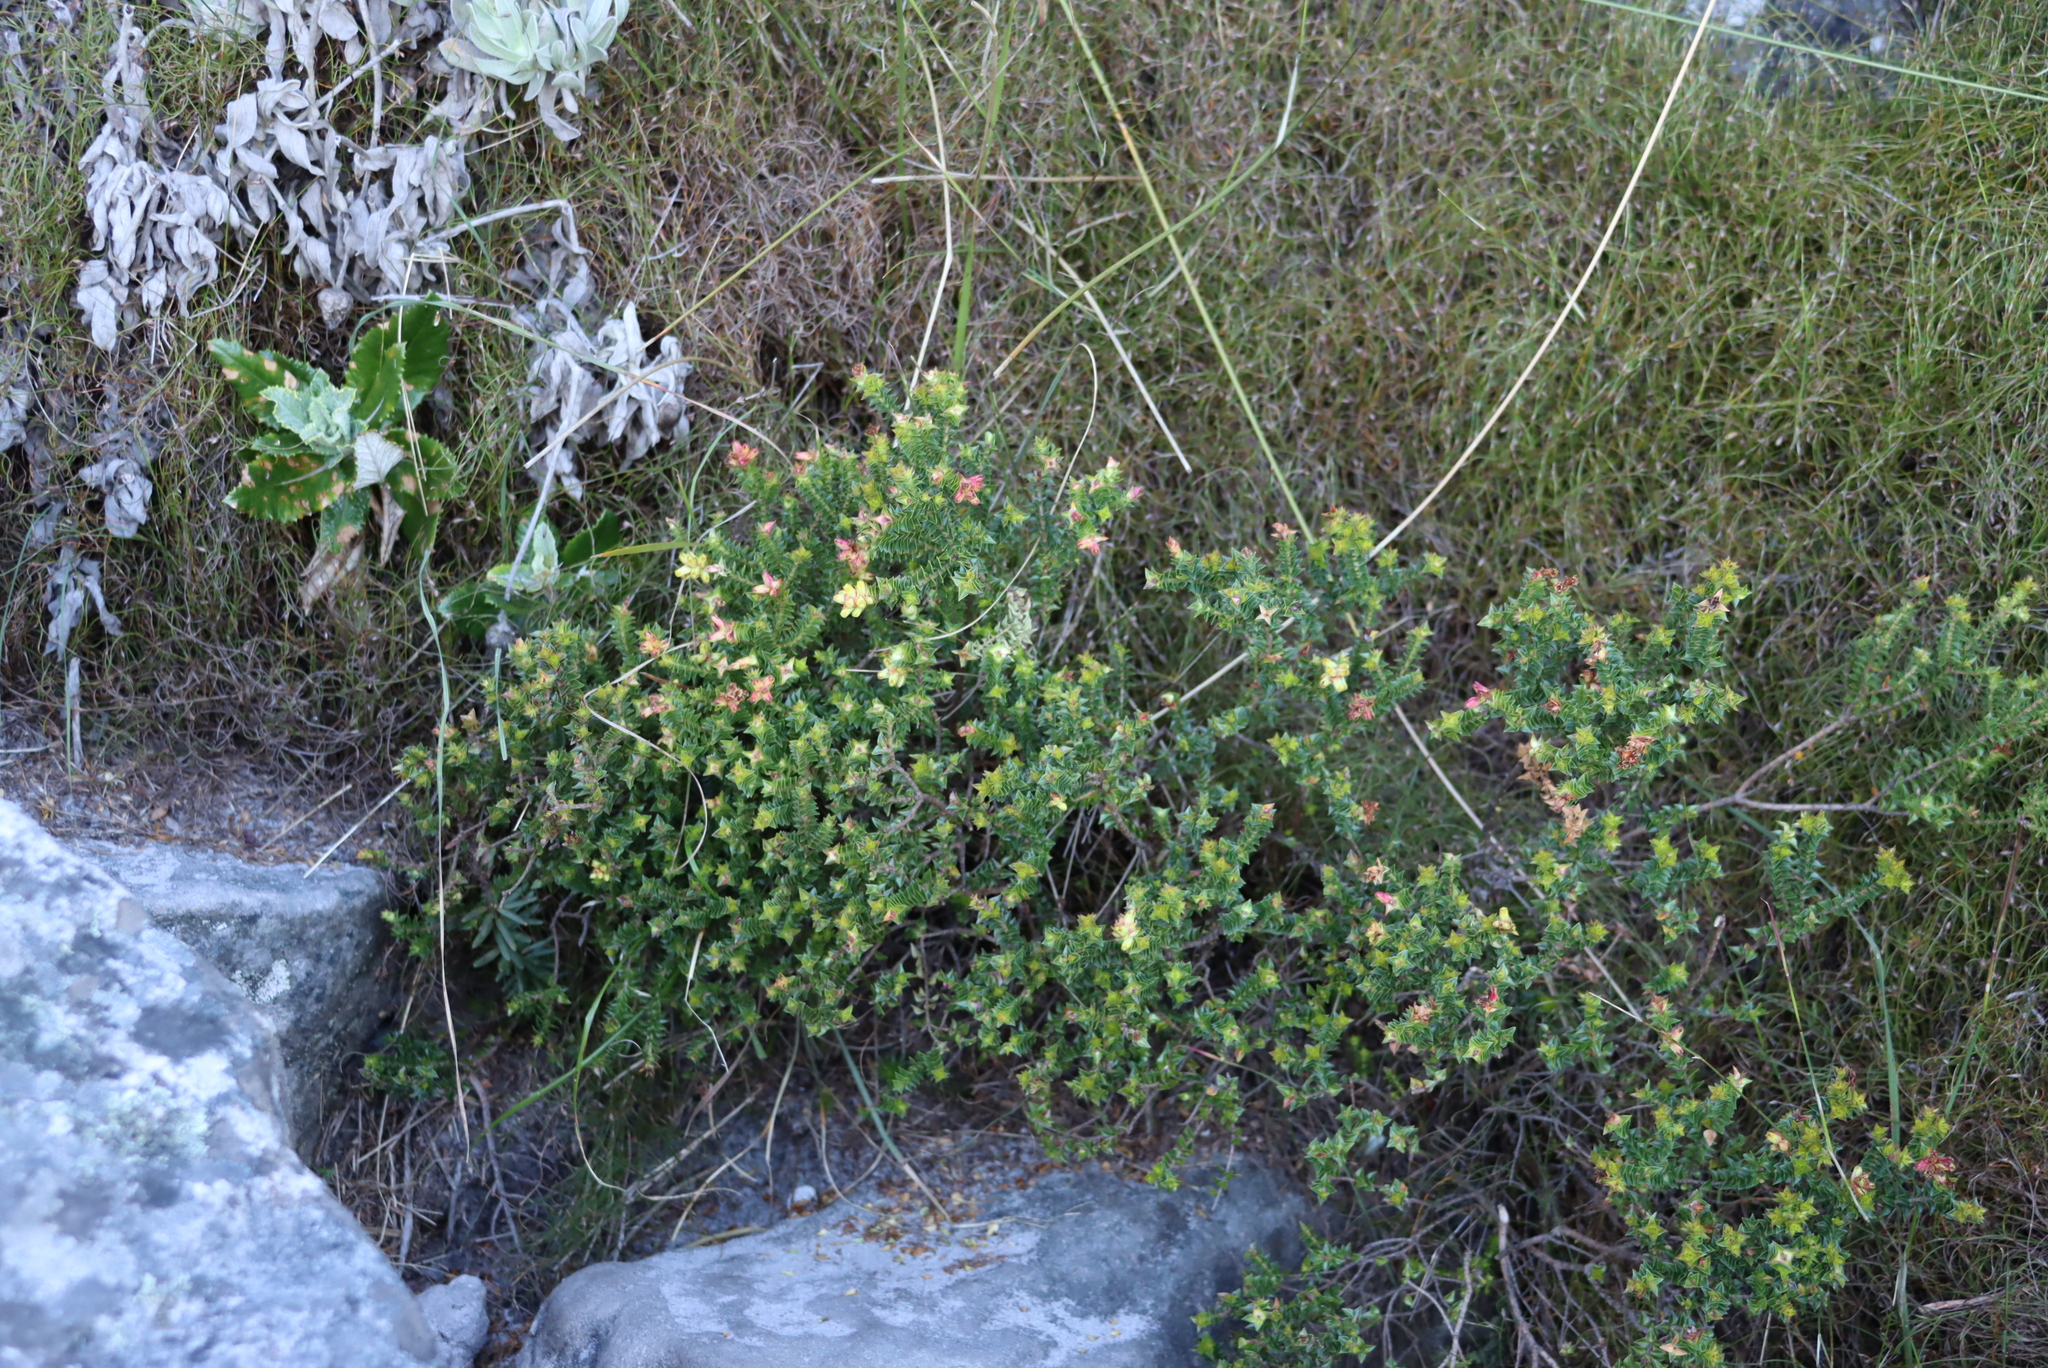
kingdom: Plantae
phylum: Tracheophyta
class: Magnoliopsida
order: Myrtales
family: Penaeaceae
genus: Penaea
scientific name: Penaea mucronata
